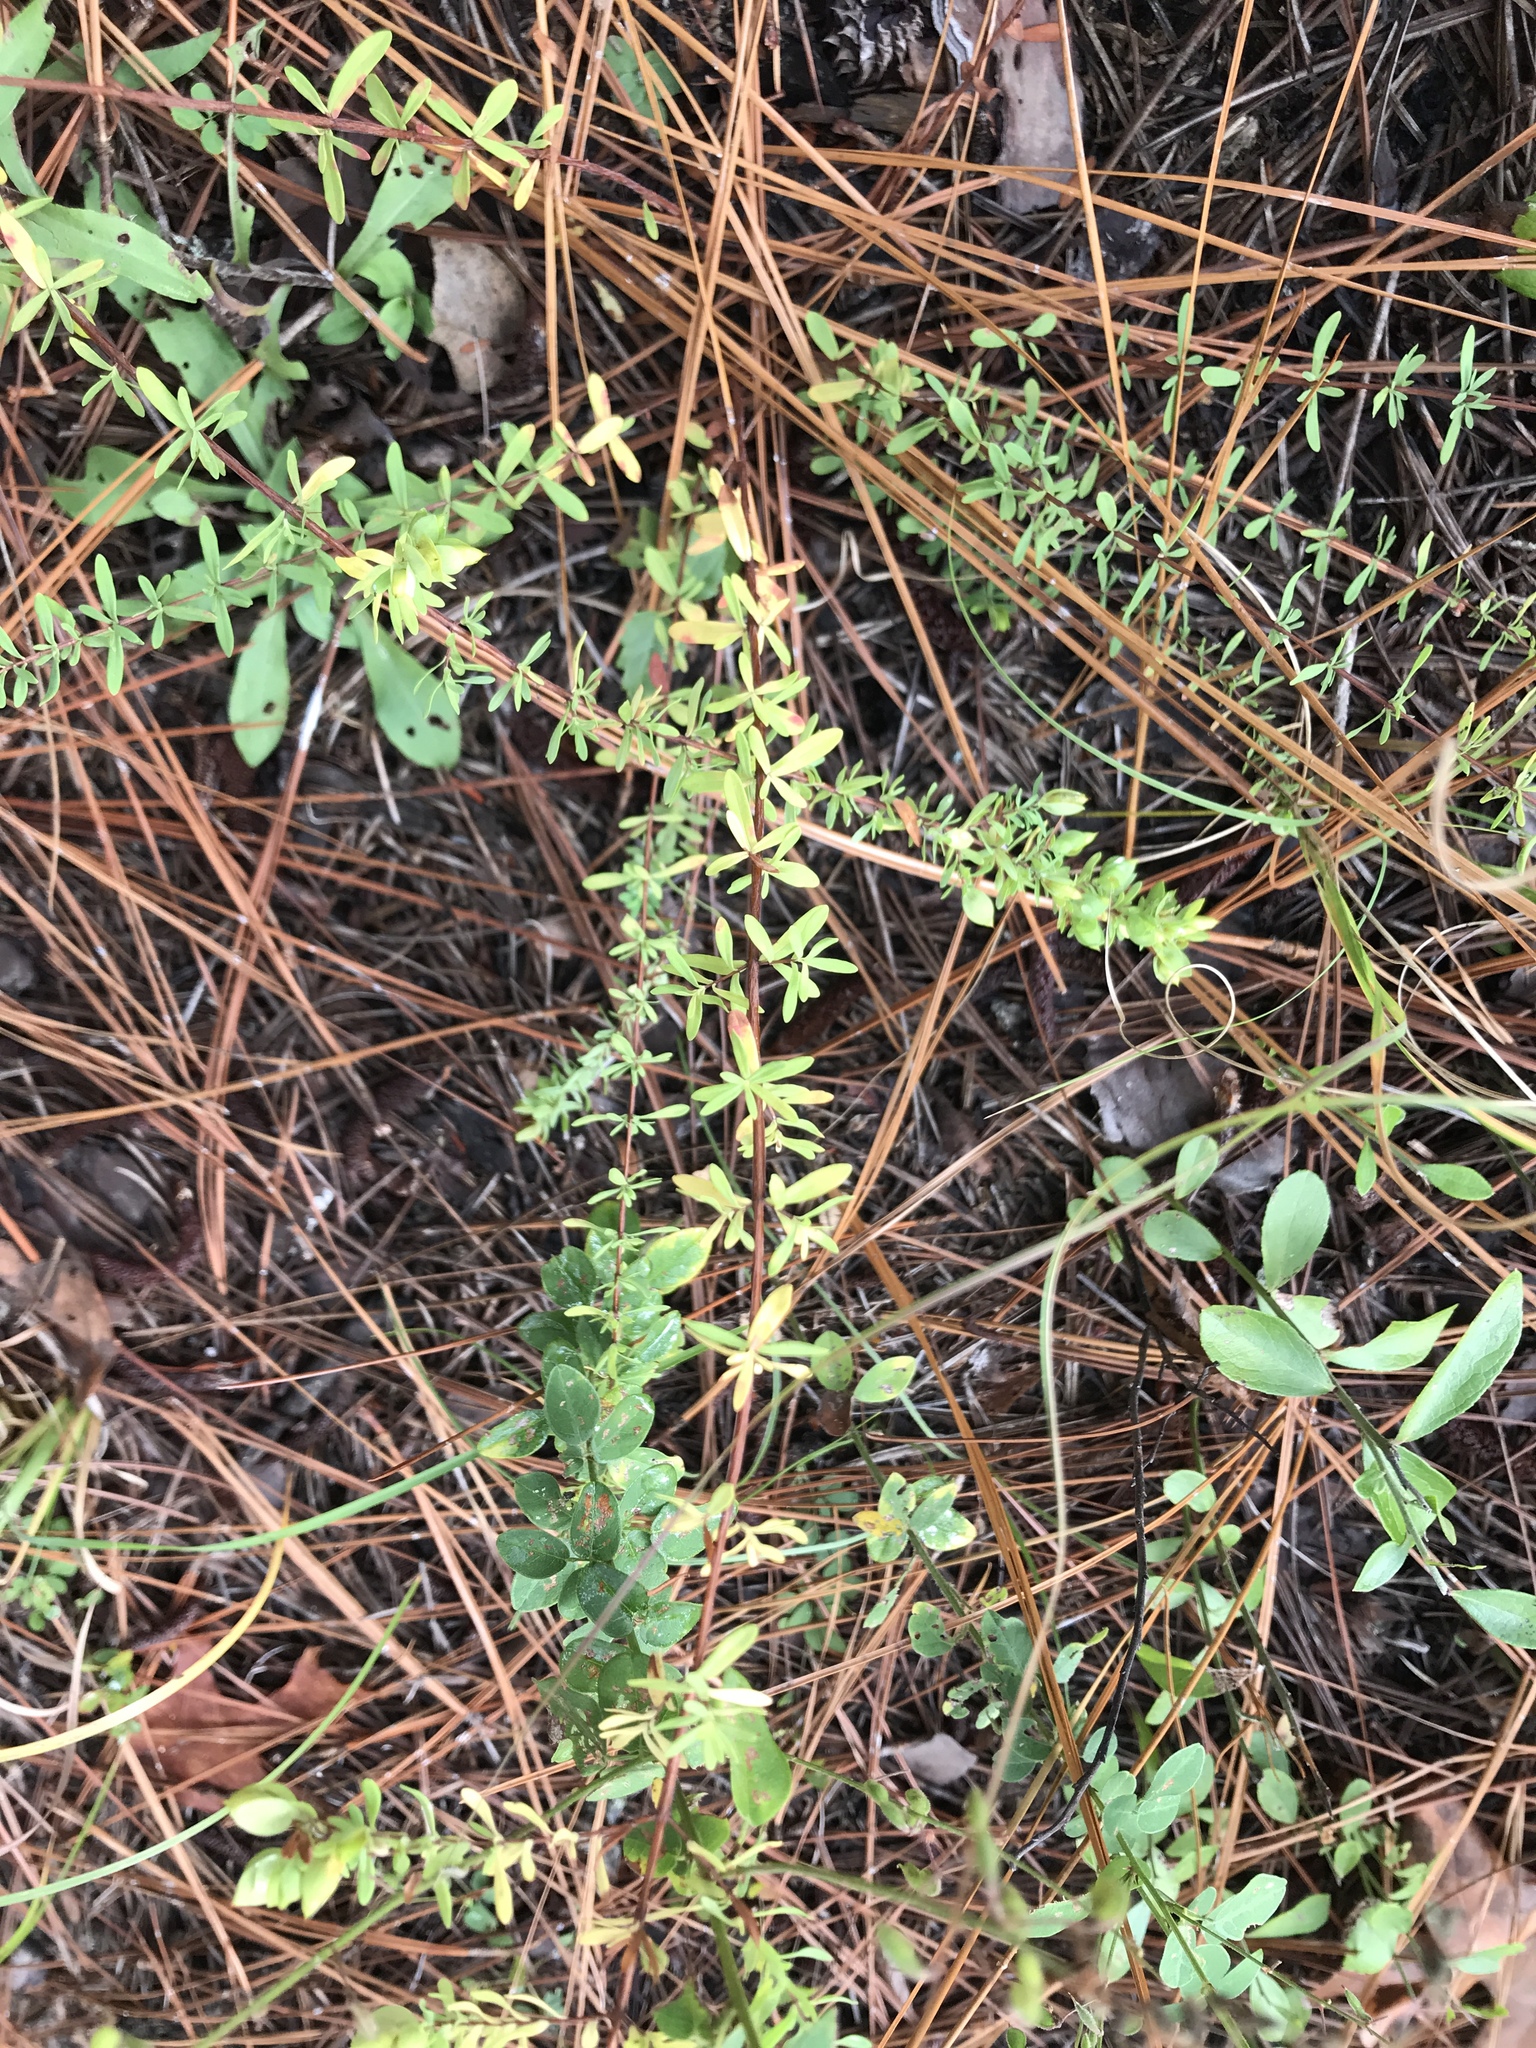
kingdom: Plantae
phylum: Tracheophyta
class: Magnoliopsida
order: Malpighiales
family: Hypericaceae
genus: Hypericum
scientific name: Hypericum hypericoides
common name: St. andrew's cross
